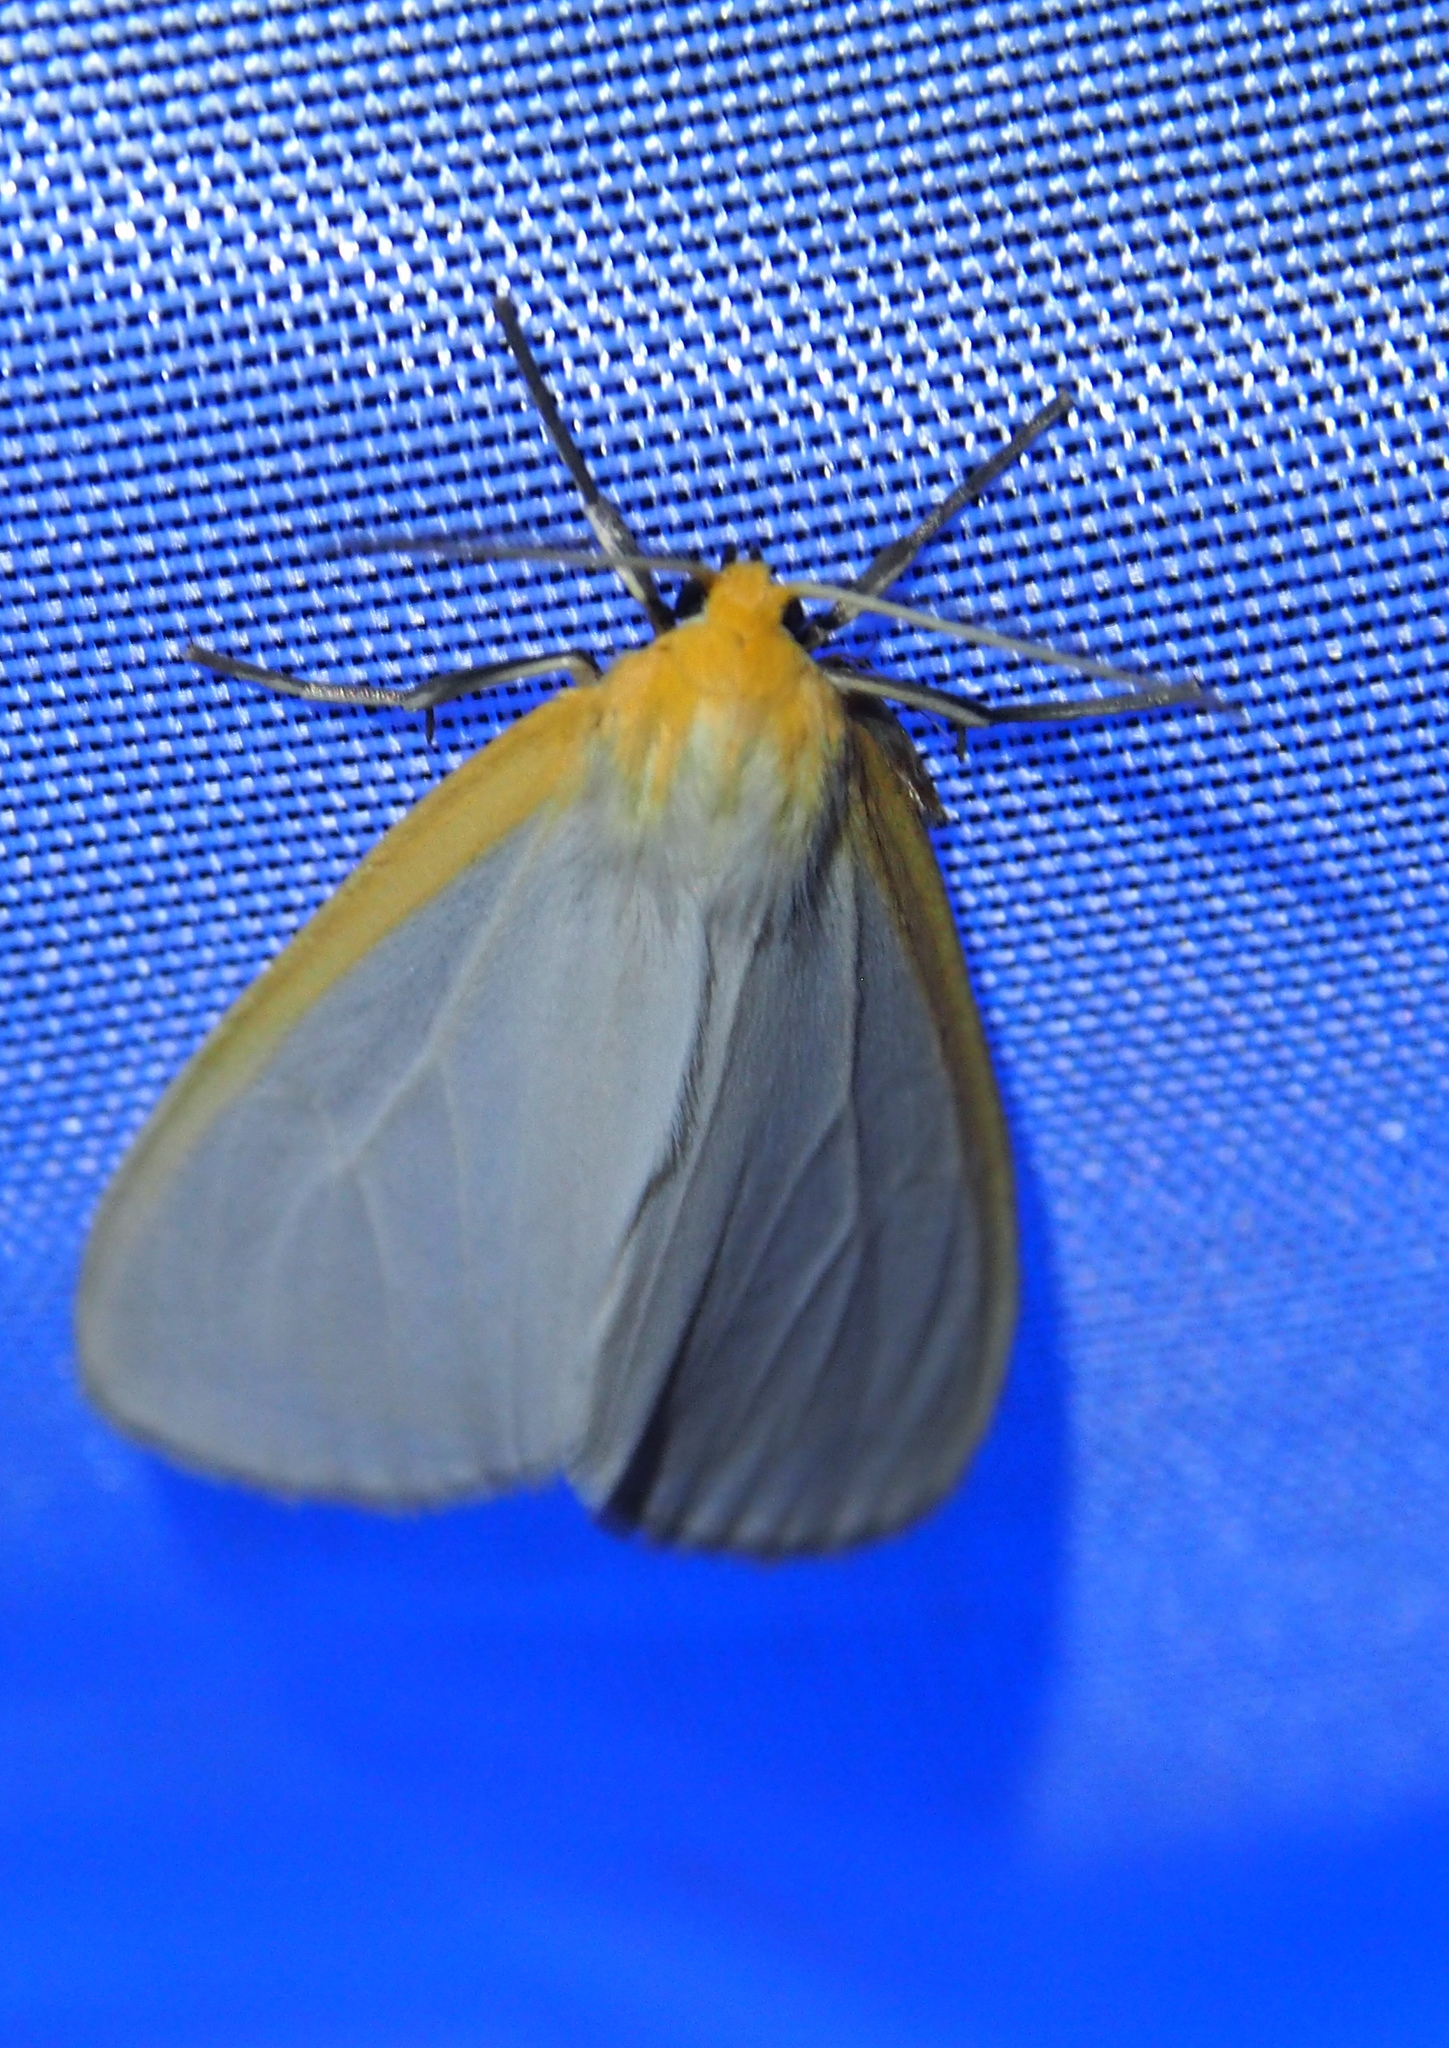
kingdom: Animalia
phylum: Arthropoda
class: Insecta
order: Lepidoptera
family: Erebidae
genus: Cycnia
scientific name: Cycnia tenera
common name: Delicate cycnia moth
